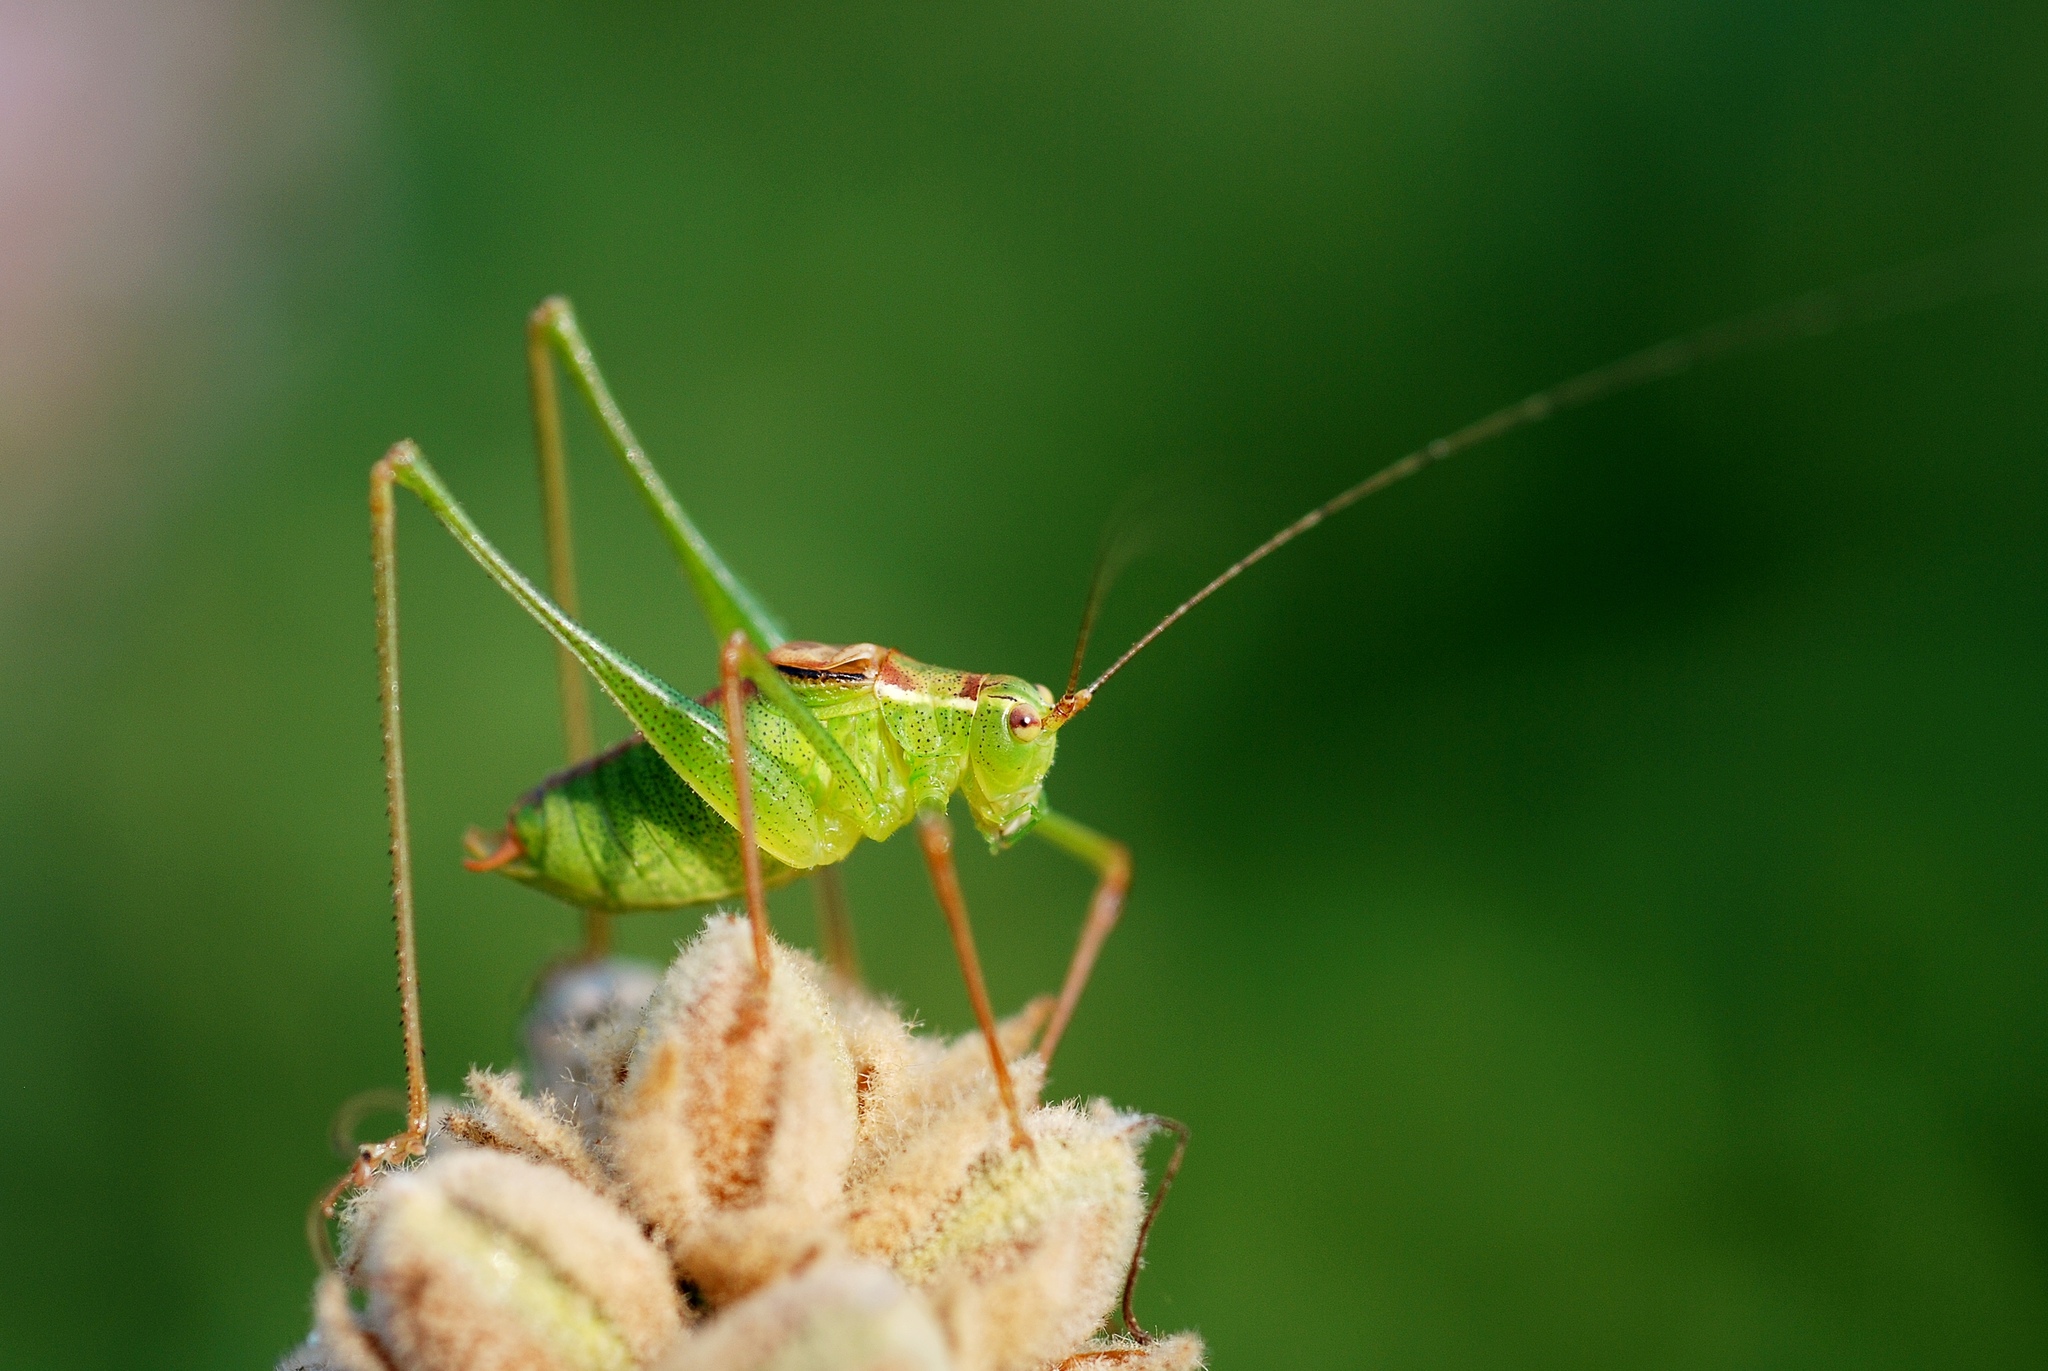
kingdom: Animalia
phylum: Arthropoda
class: Insecta
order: Orthoptera
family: Tettigoniidae
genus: Leptophyes
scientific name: Leptophyes punctatissima
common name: Speckled bush-cricket
